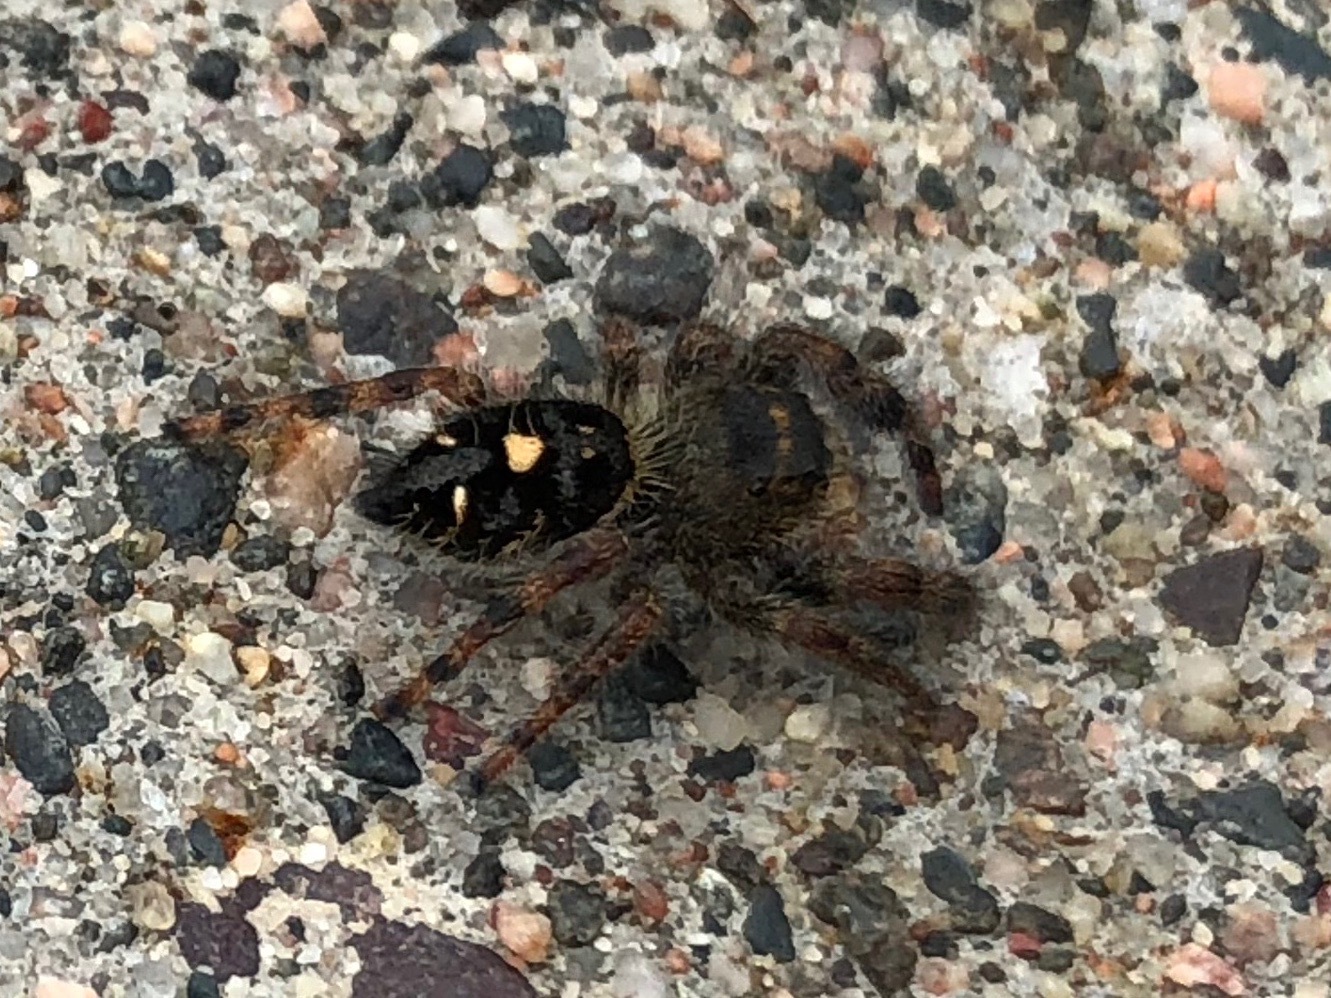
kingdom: Animalia
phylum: Arthropoda
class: Arachnida
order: Araneae
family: Salticidae
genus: Phidippus
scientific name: Phidippus audax
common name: Bold jumper
